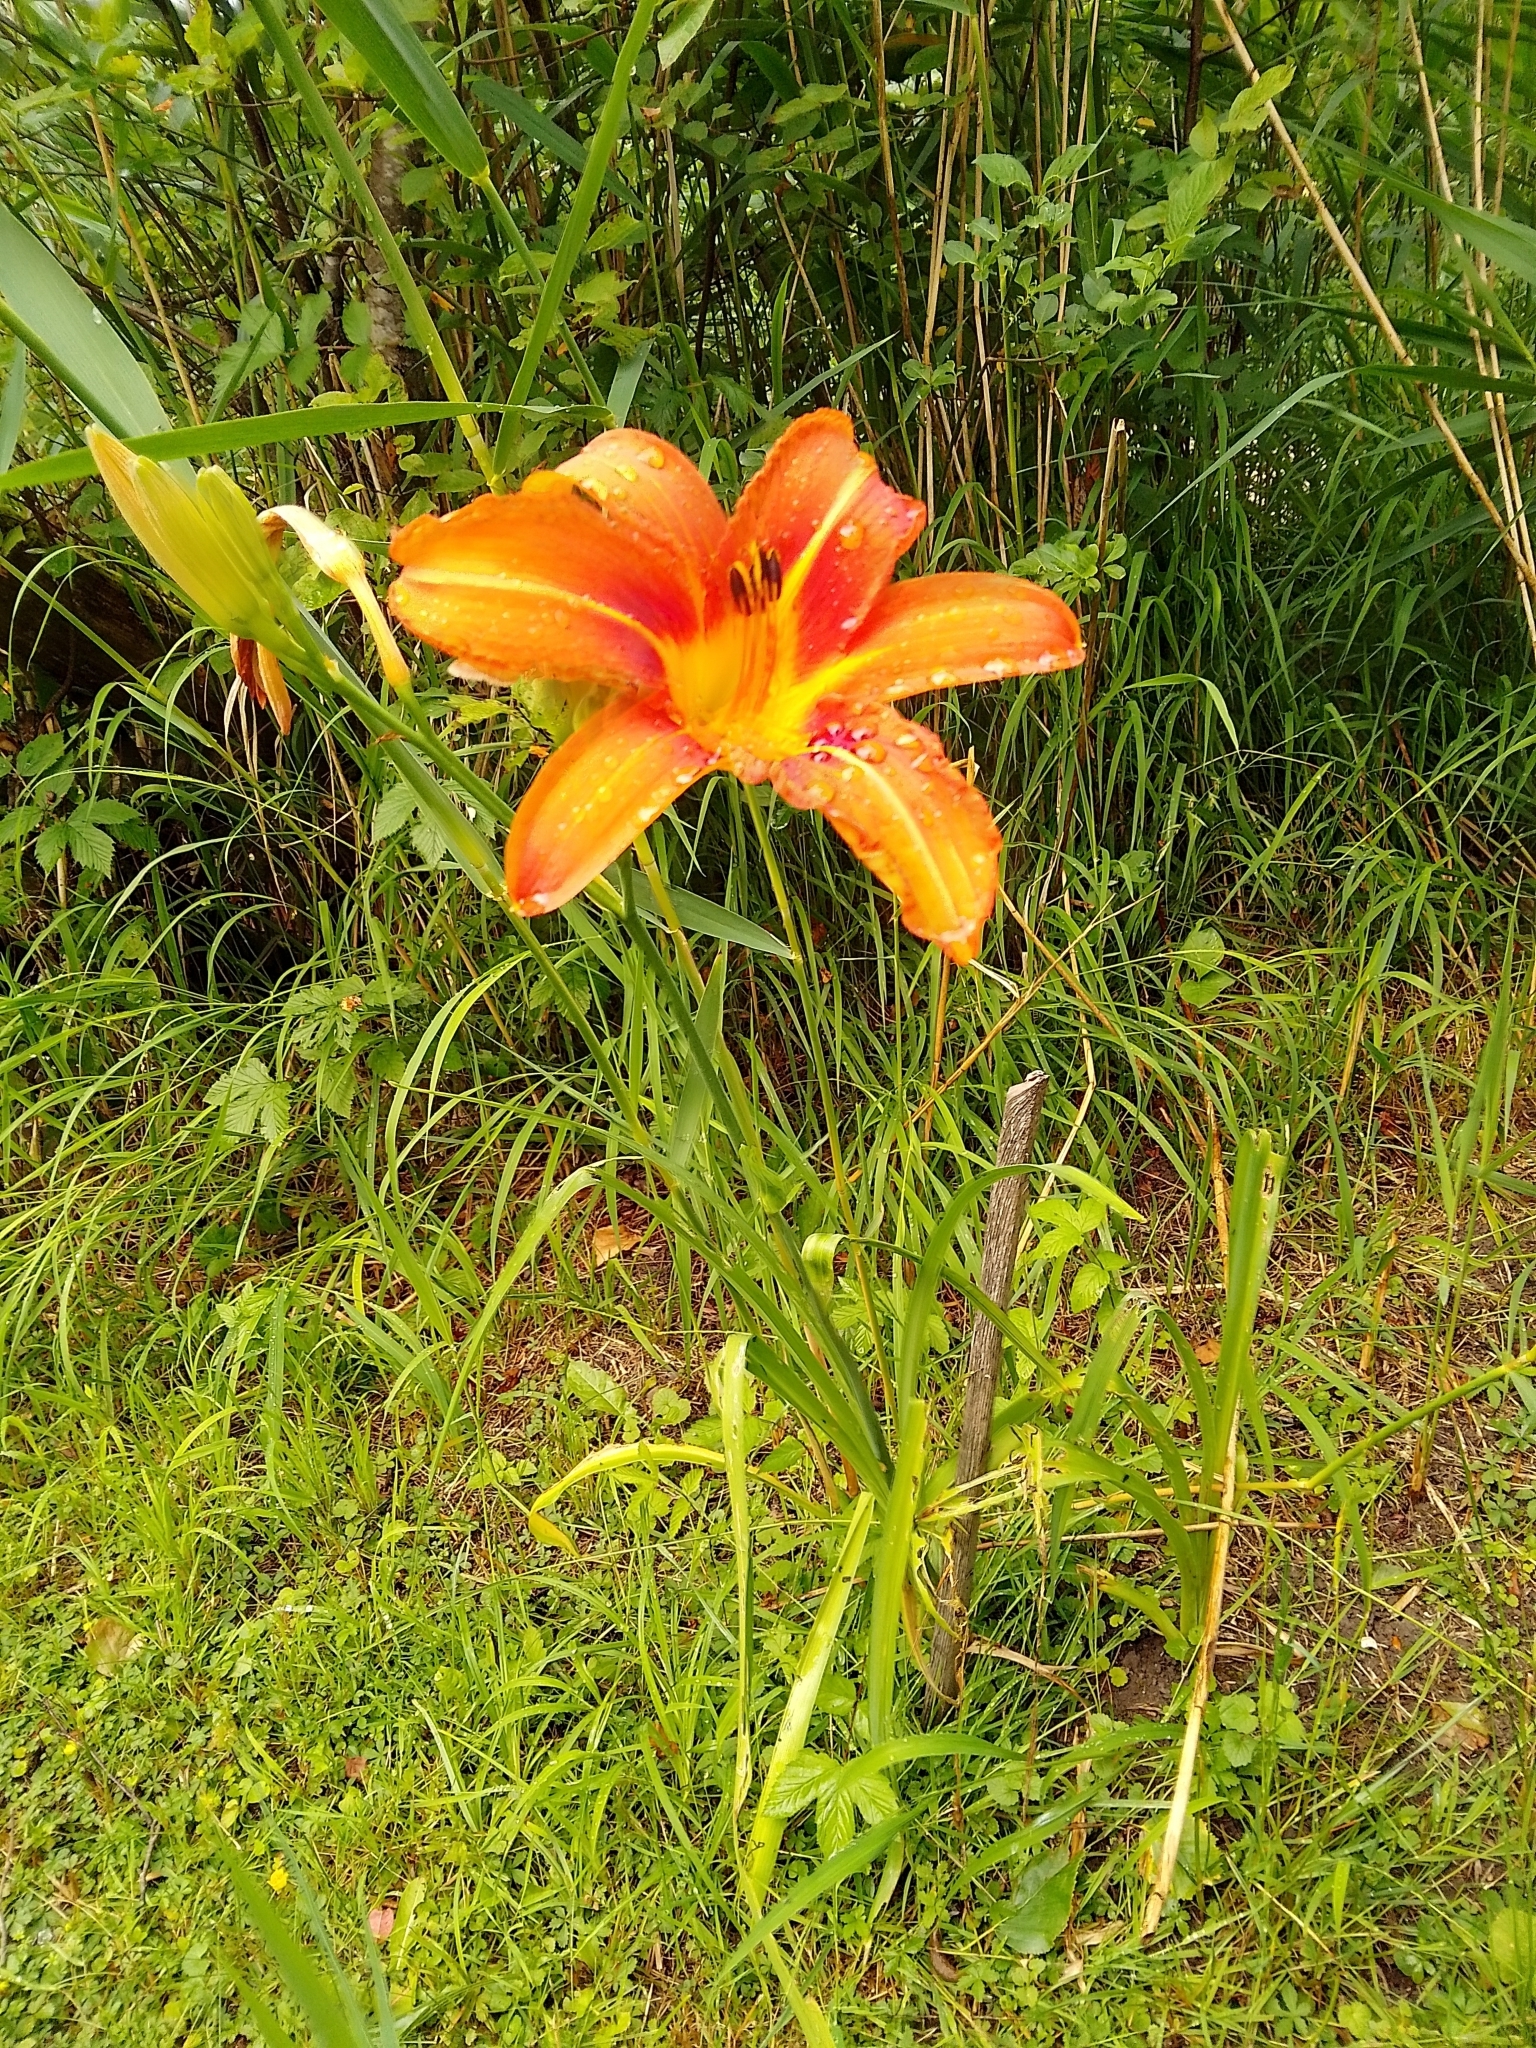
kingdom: Plantae
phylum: Tracheophyta
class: Liliopsida
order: Asparagales
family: Asphodelaceae
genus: Hemerocallis
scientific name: Hemerocallis fulva
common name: Orange day-lily
